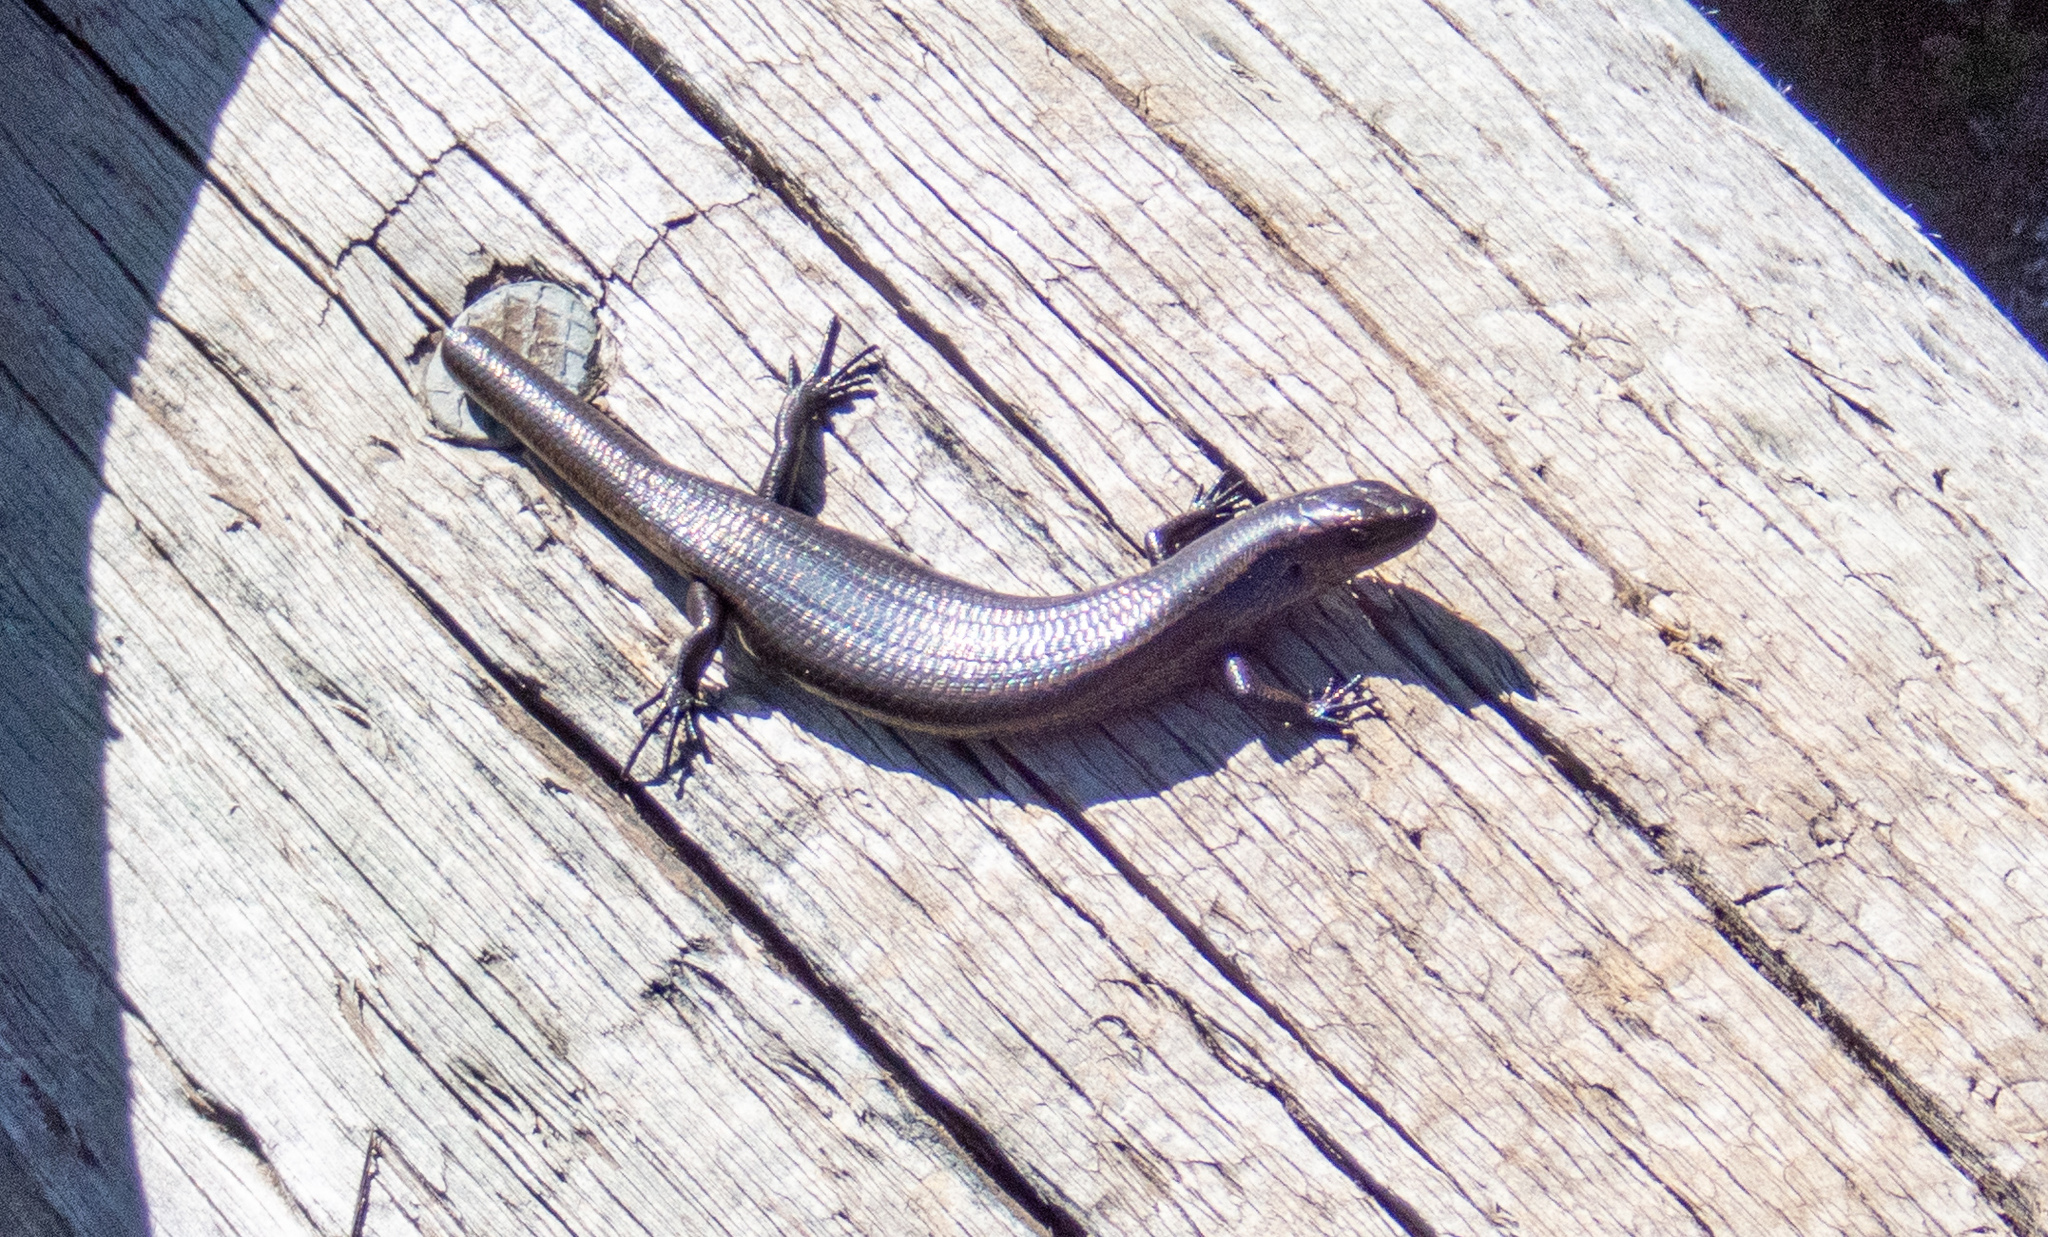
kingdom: Animalia
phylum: Chordata
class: Squamata
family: Scincidae
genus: Carinascincus
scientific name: Carinascincus metallicus
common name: Metallic cool-skink
